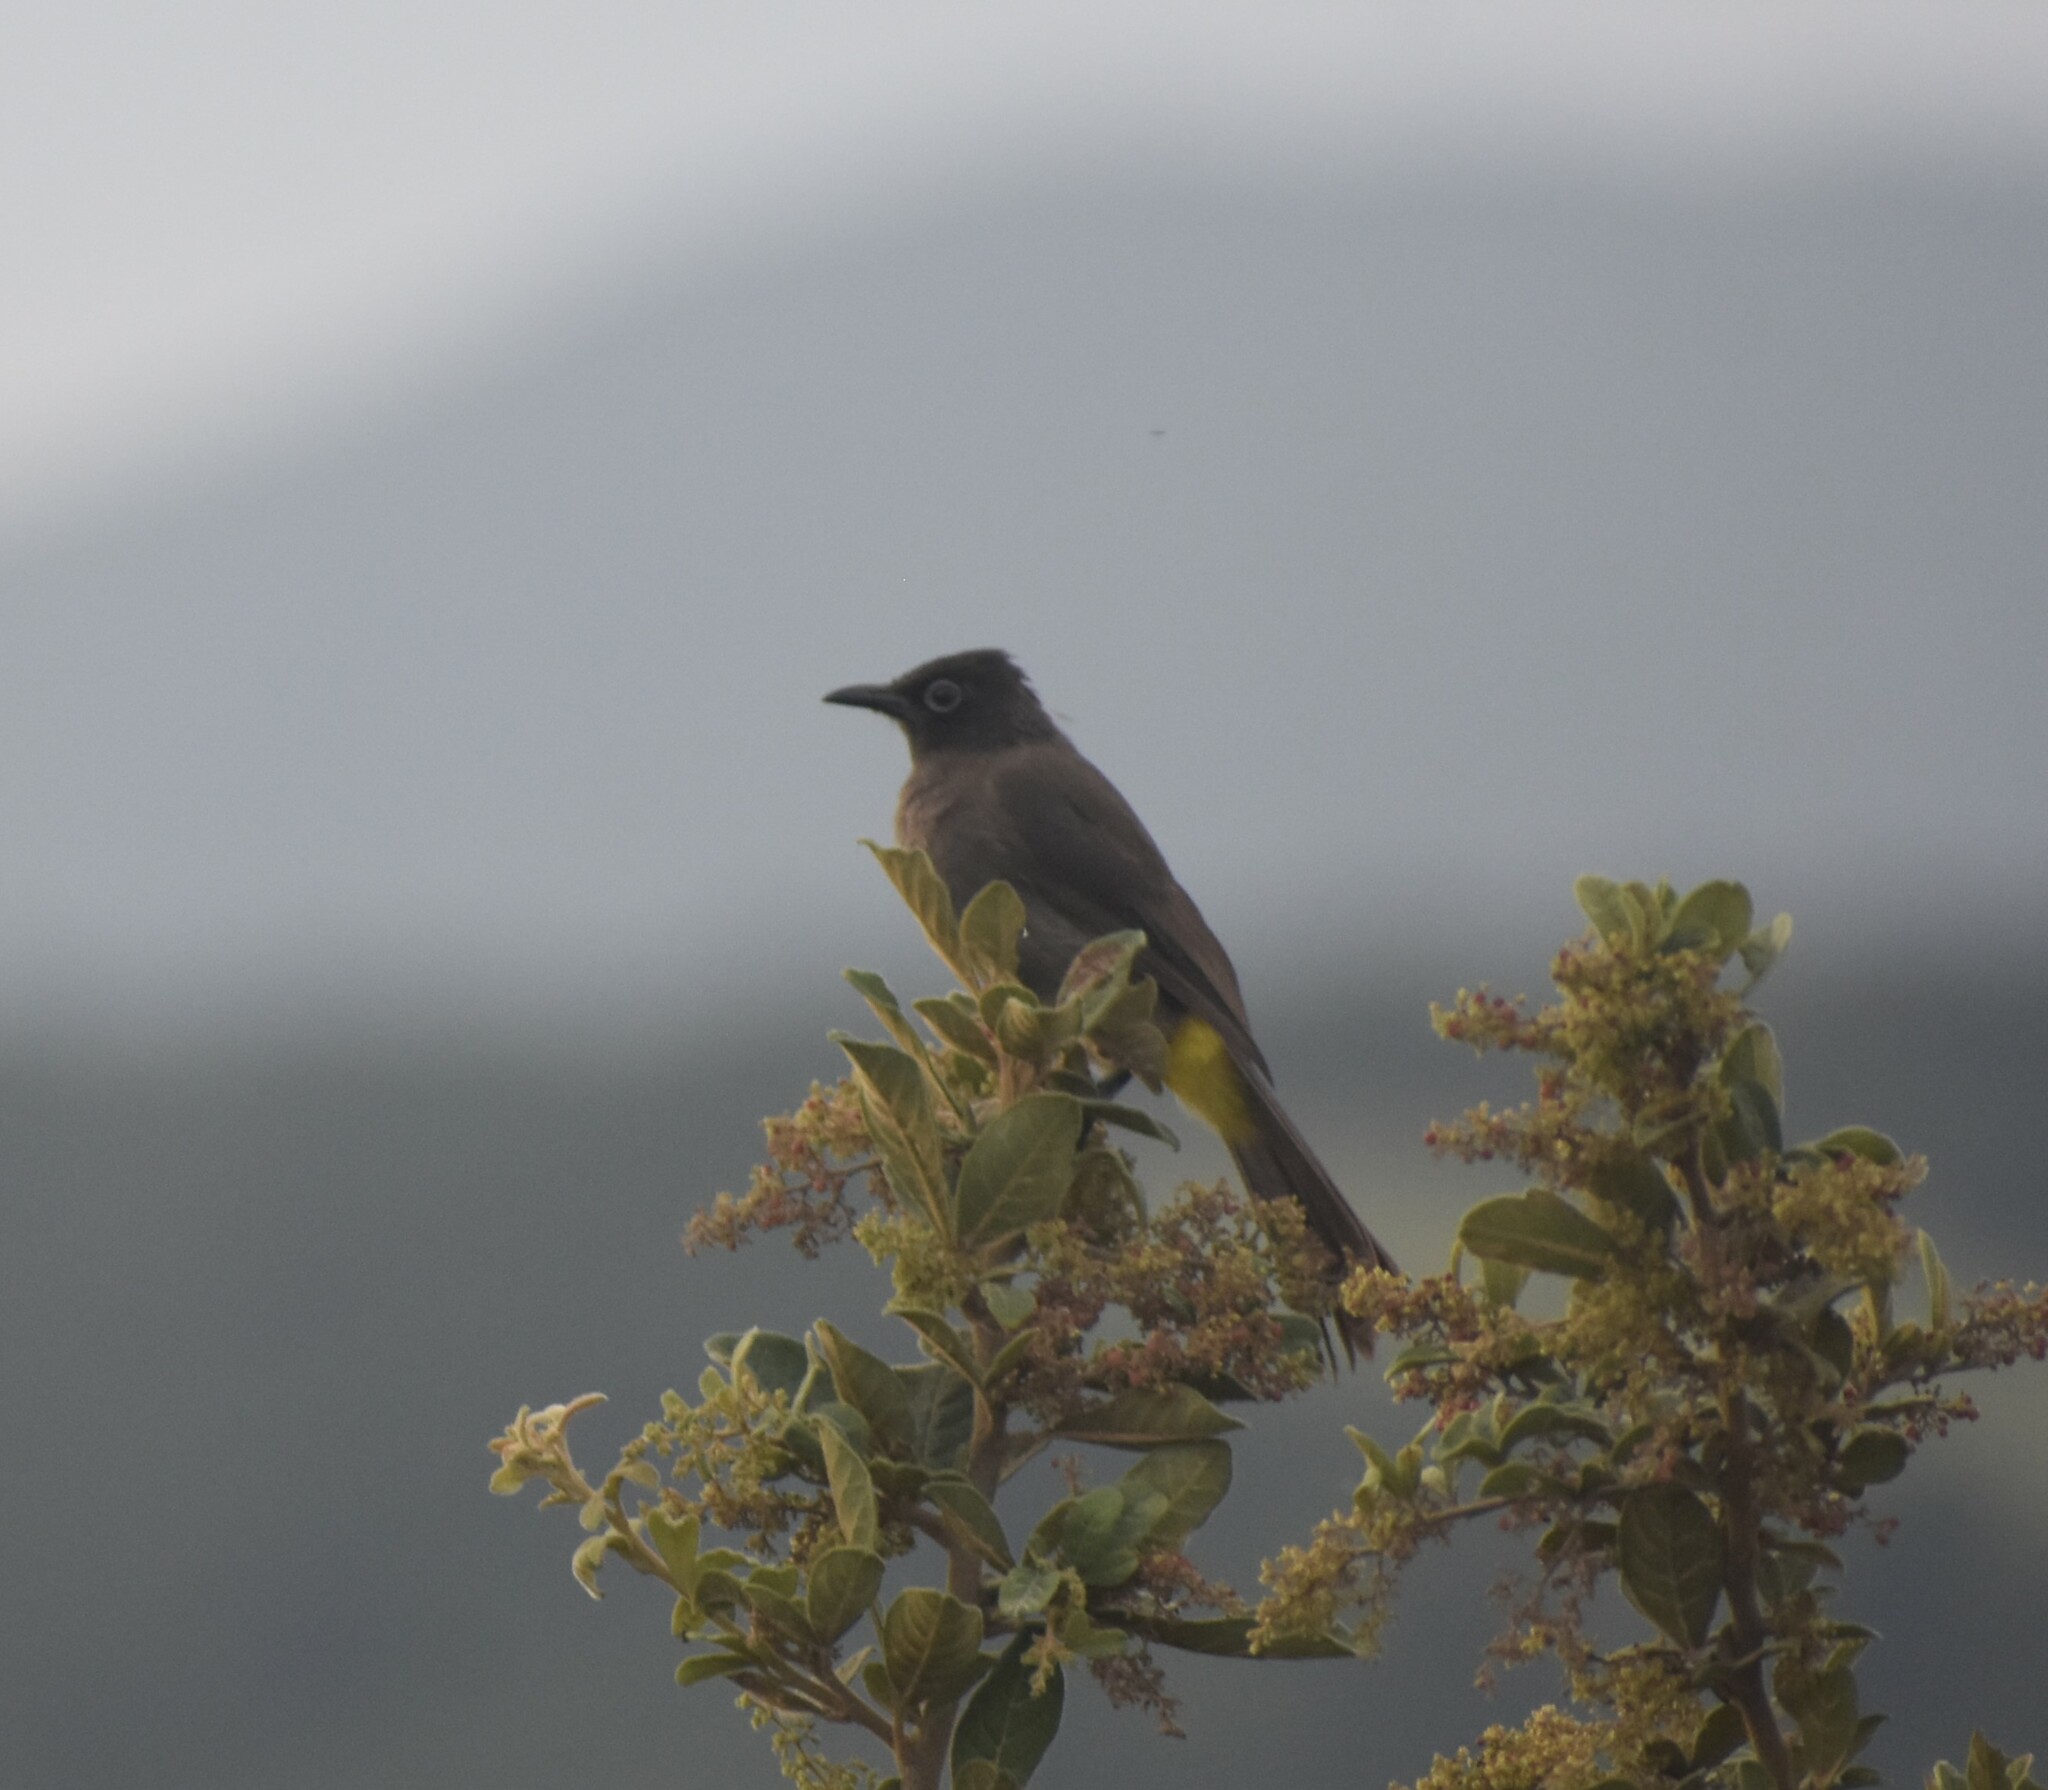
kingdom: Animalia
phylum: Chordata
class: Aves
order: Passeriformes
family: Pycnonotidae
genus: Pycnonotus
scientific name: Pycnonotus capensis
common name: Cape bulbul
